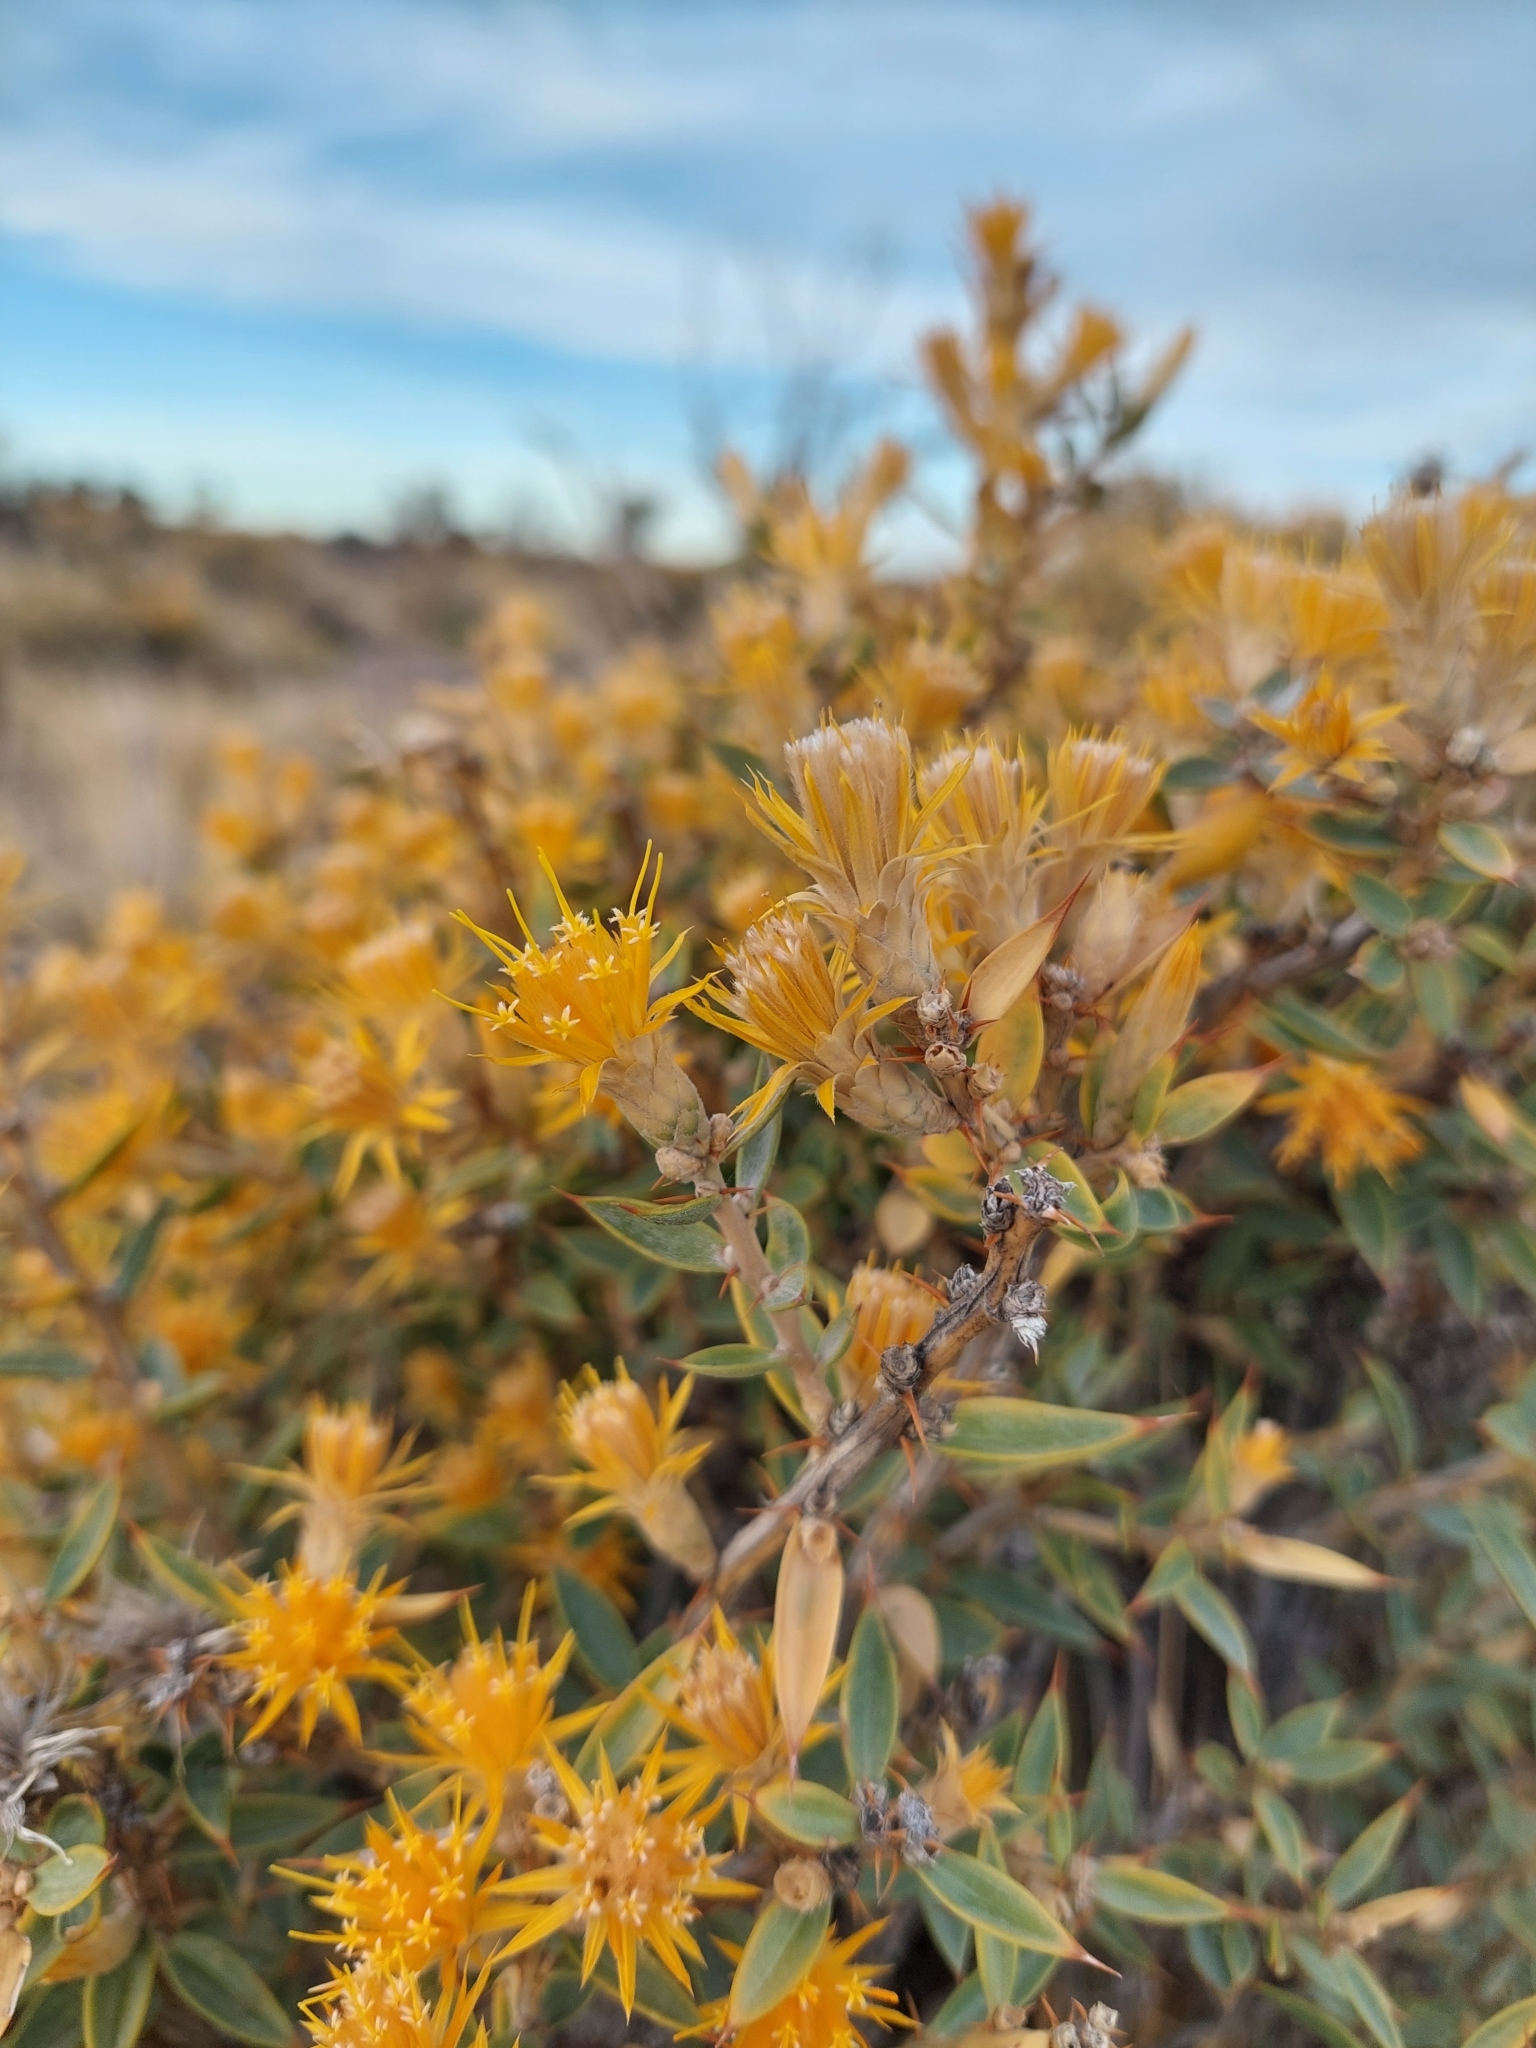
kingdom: Plantae
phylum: Tracheophyta
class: Magnoliopsida
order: Asterales
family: Asteraceae
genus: Chuquiraga
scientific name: Chuquiraga avellanedae
